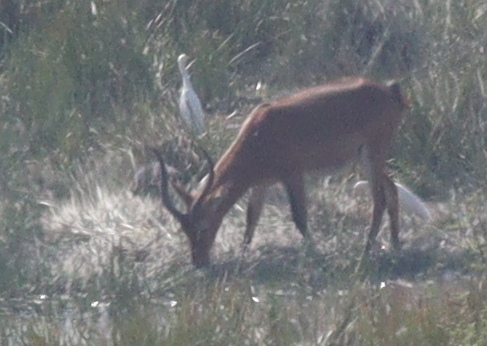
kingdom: Animalia
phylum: Chordata
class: Mammalia
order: Artiodactyla
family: Bovidae
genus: Kobus
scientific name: Kobus kob
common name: Kob
